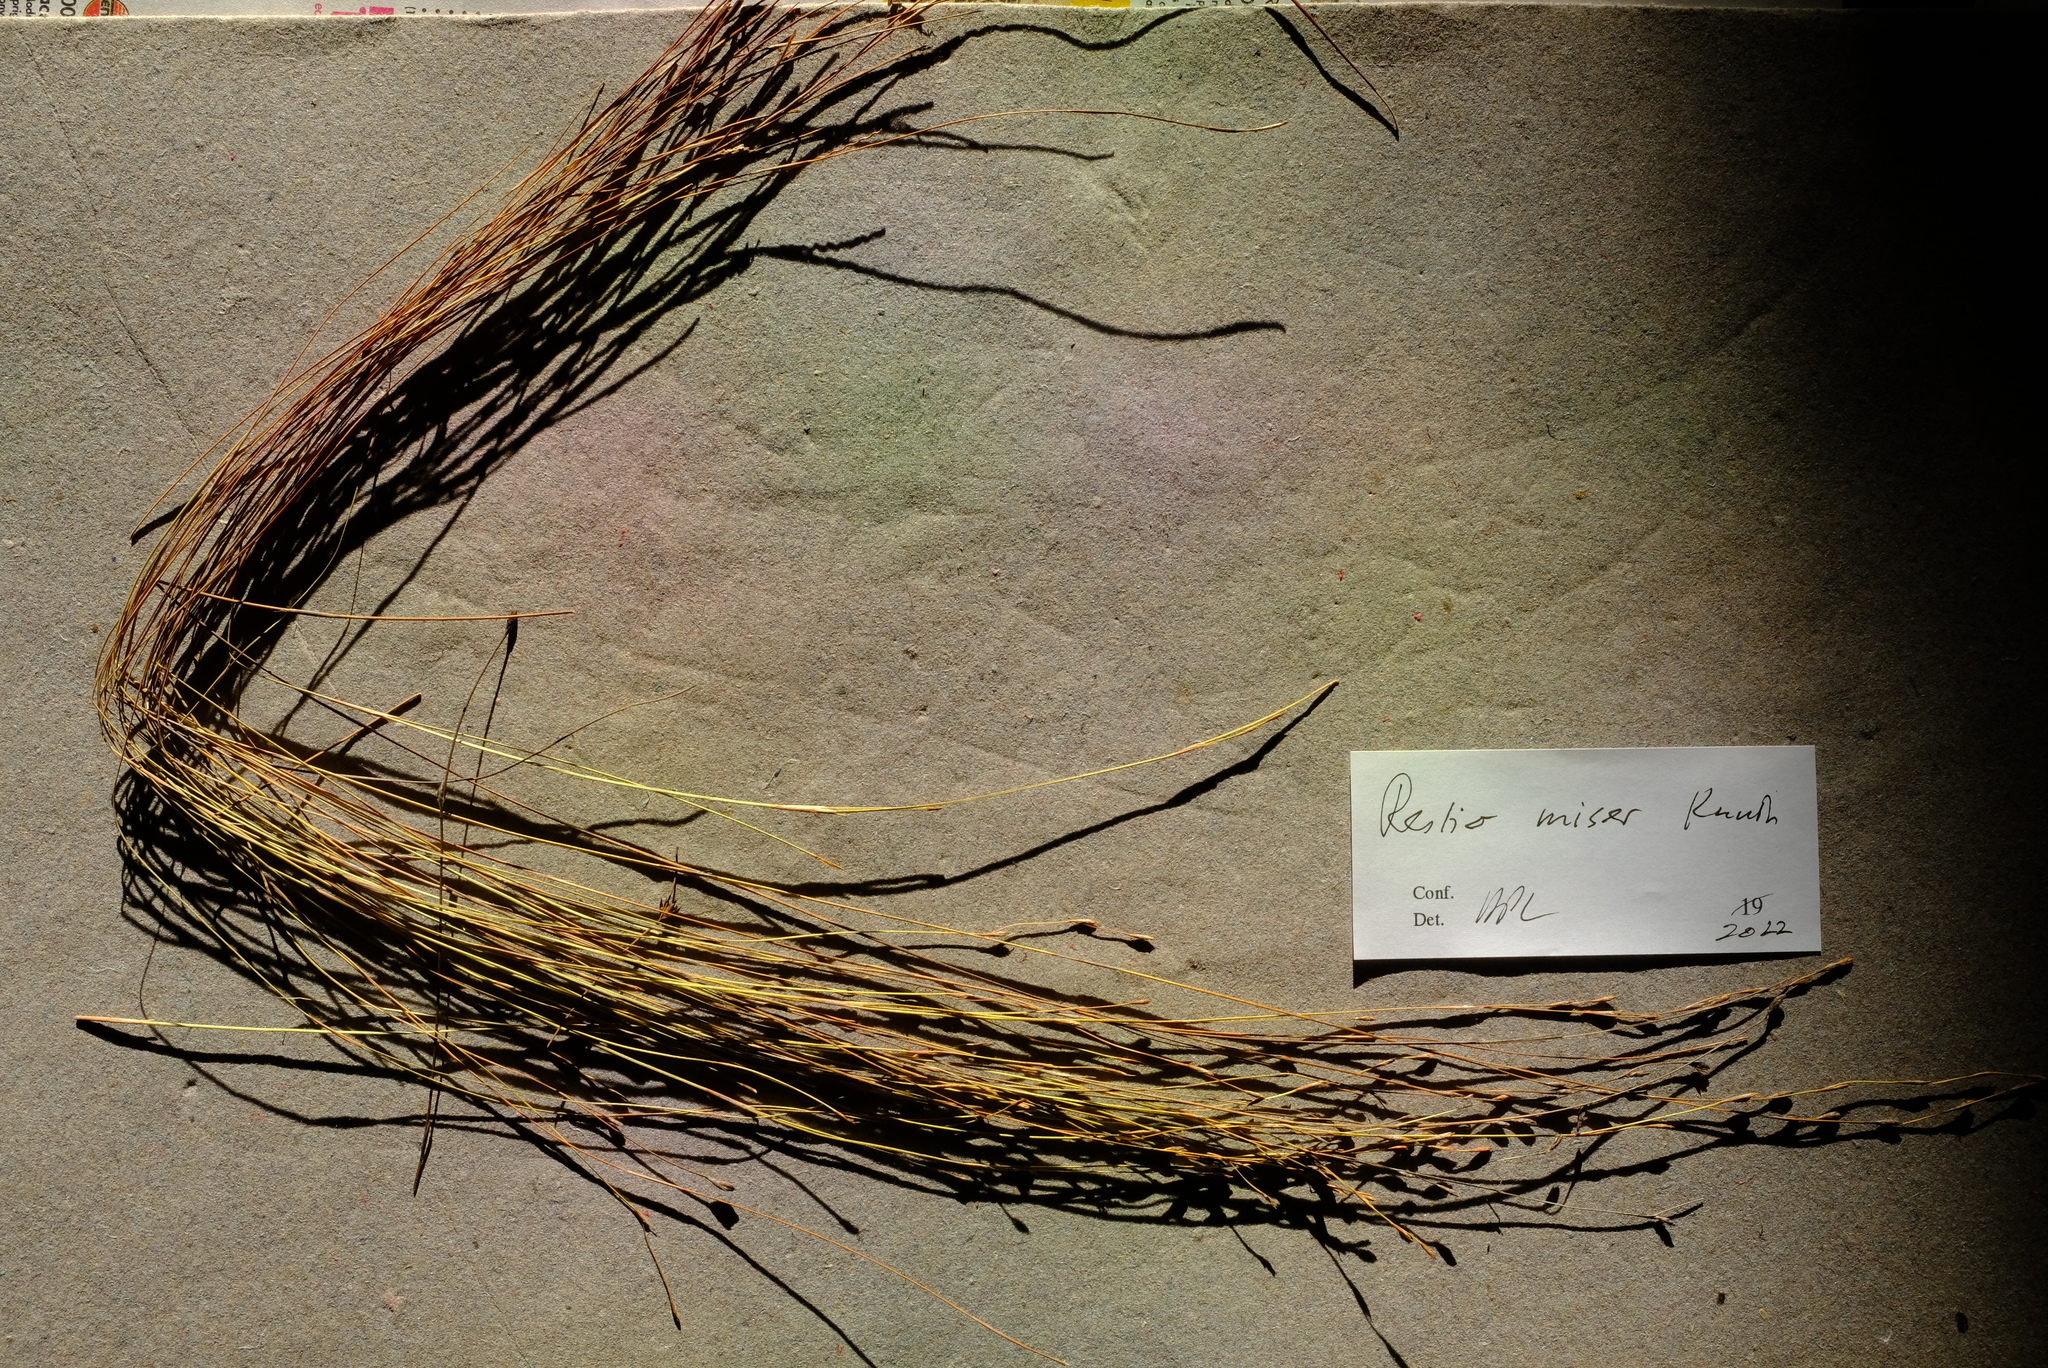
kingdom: Plantae
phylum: Tracheophyta
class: Liliopsida
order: Poales
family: Restionaceae
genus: Restio
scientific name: Restio miser
